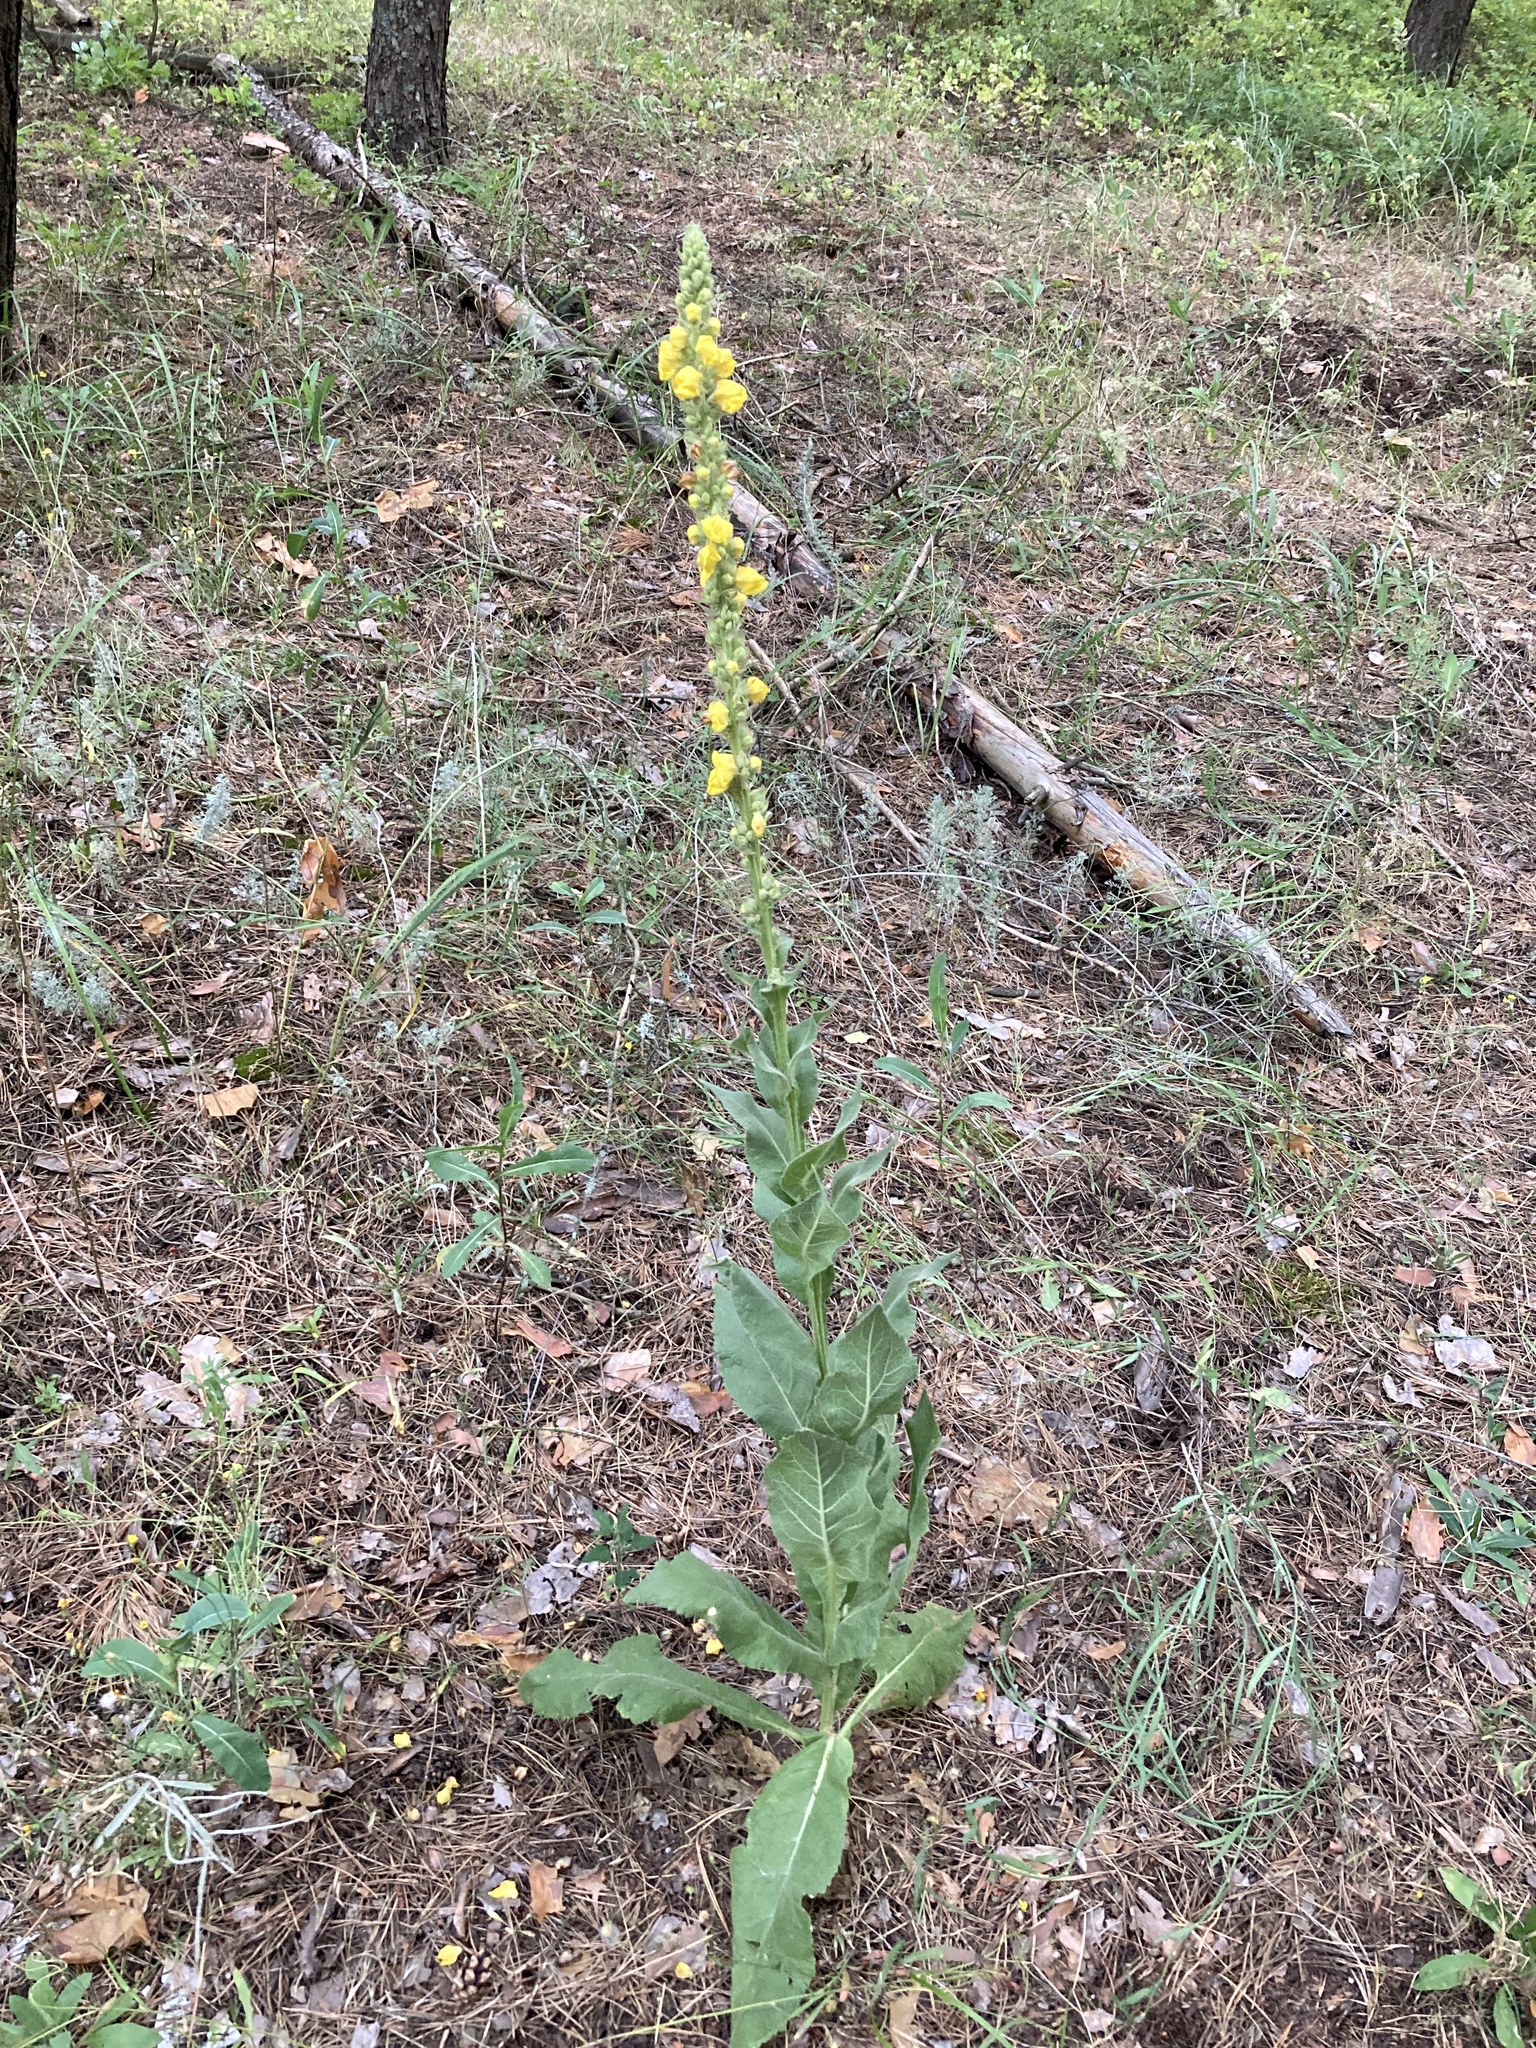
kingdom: Plantae
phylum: Tracheophyta
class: Magnoliopsida
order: Lamiales
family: Scrophulariaceae
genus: Verbascum
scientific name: Verbascum densiflorum
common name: Dense-flowered mullein
